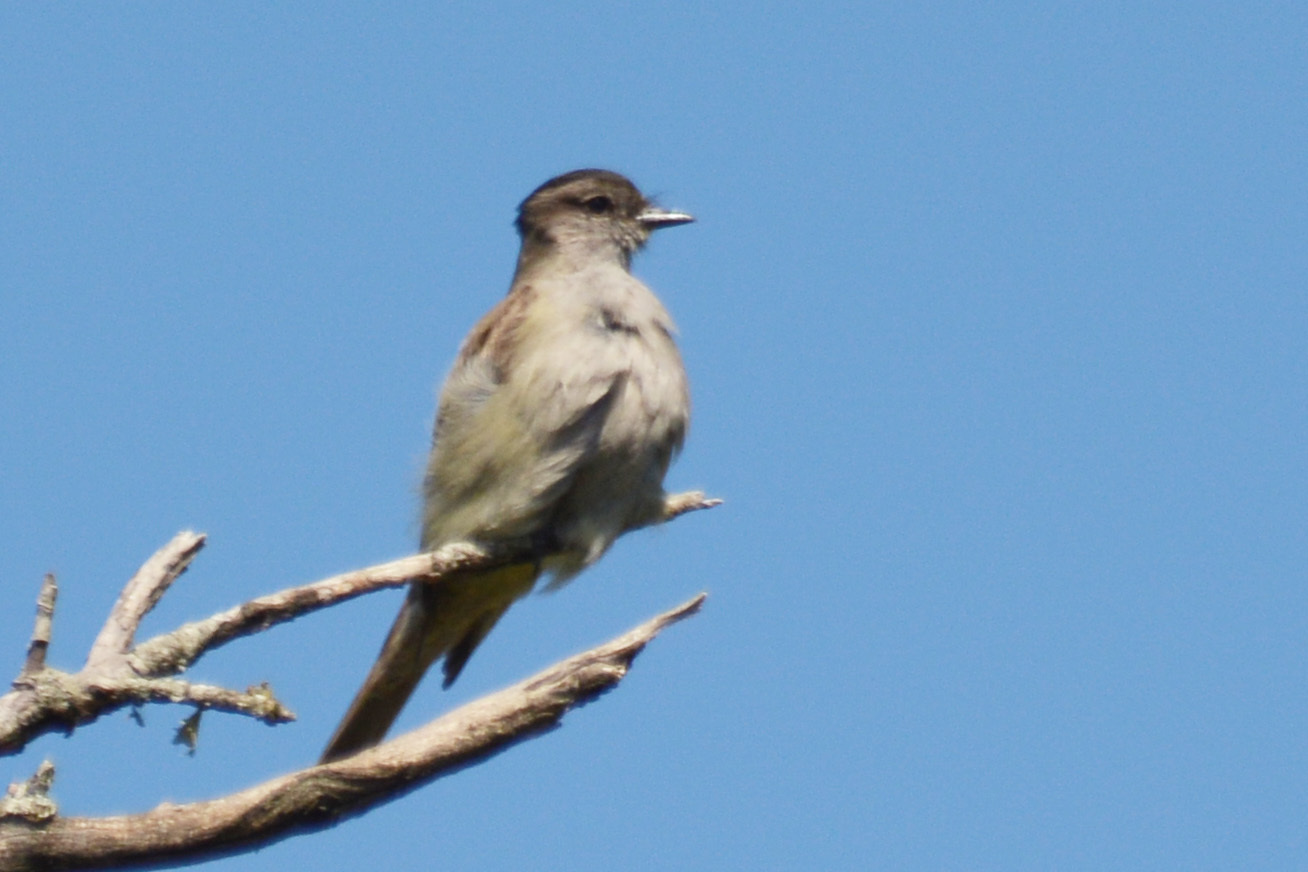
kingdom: Animalia
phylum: Chordata
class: Aves
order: Passeriformes
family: Tyrannidae
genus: Empidonomus
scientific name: Empidonomus aurantioatrocristatus
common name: Crowned slaty flycatcher
